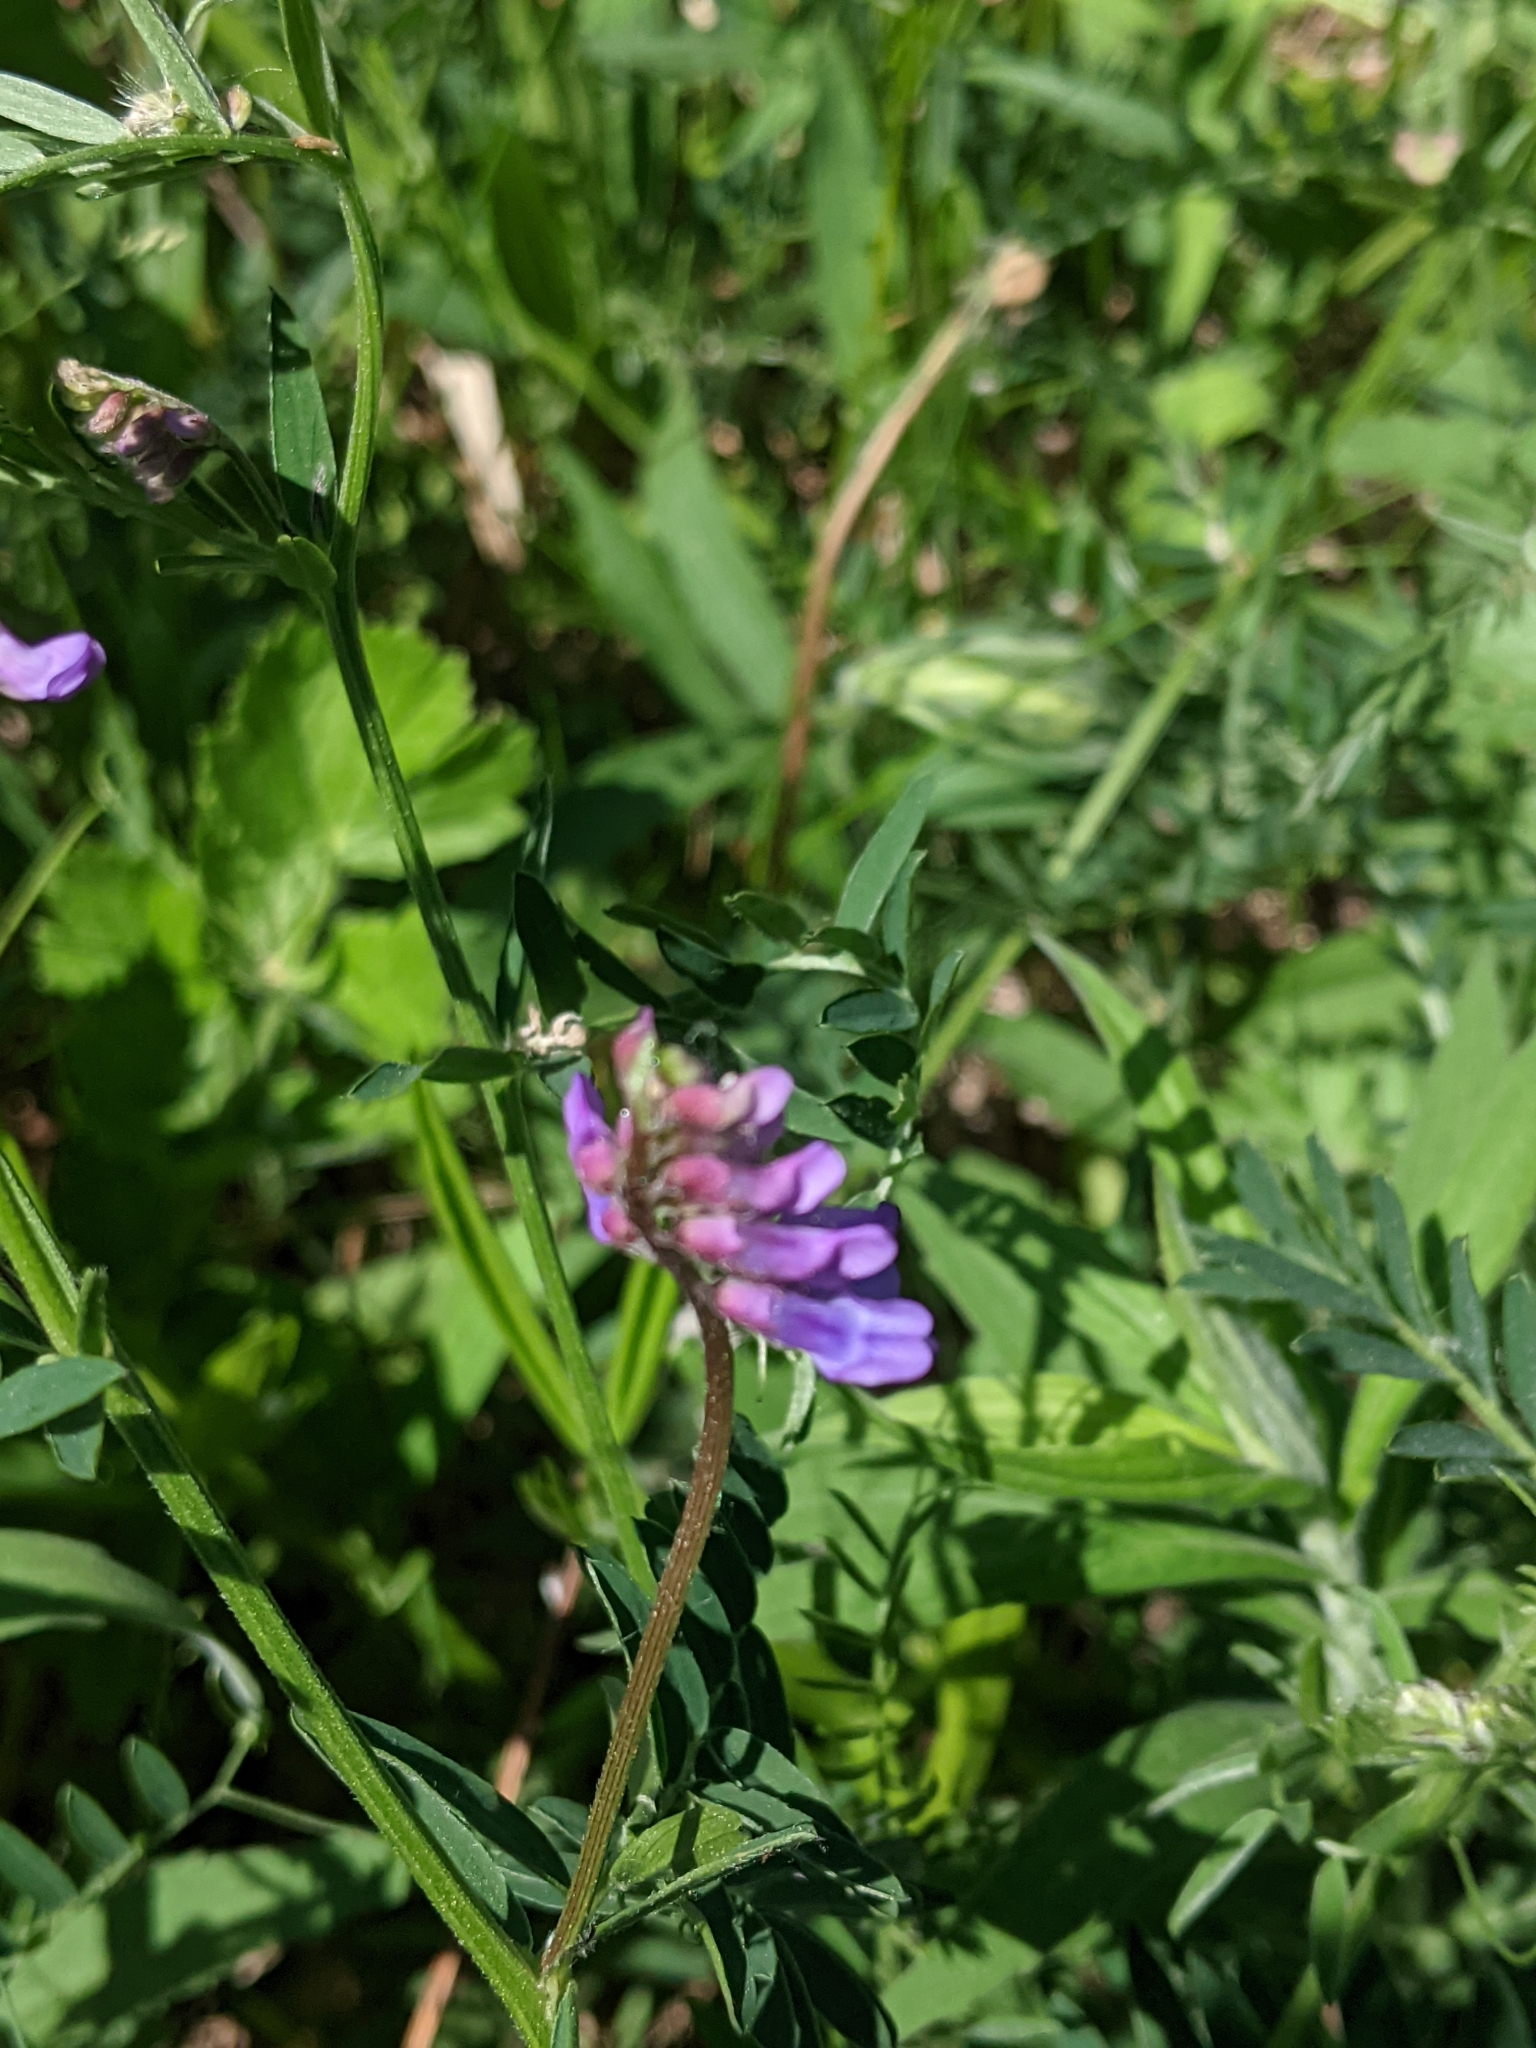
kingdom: Plantae
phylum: Tracheophyta
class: Magnoliopsida
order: Fabales
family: Fabaceae
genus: Vicia
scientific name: Vicia cracca
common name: Bird vetch
